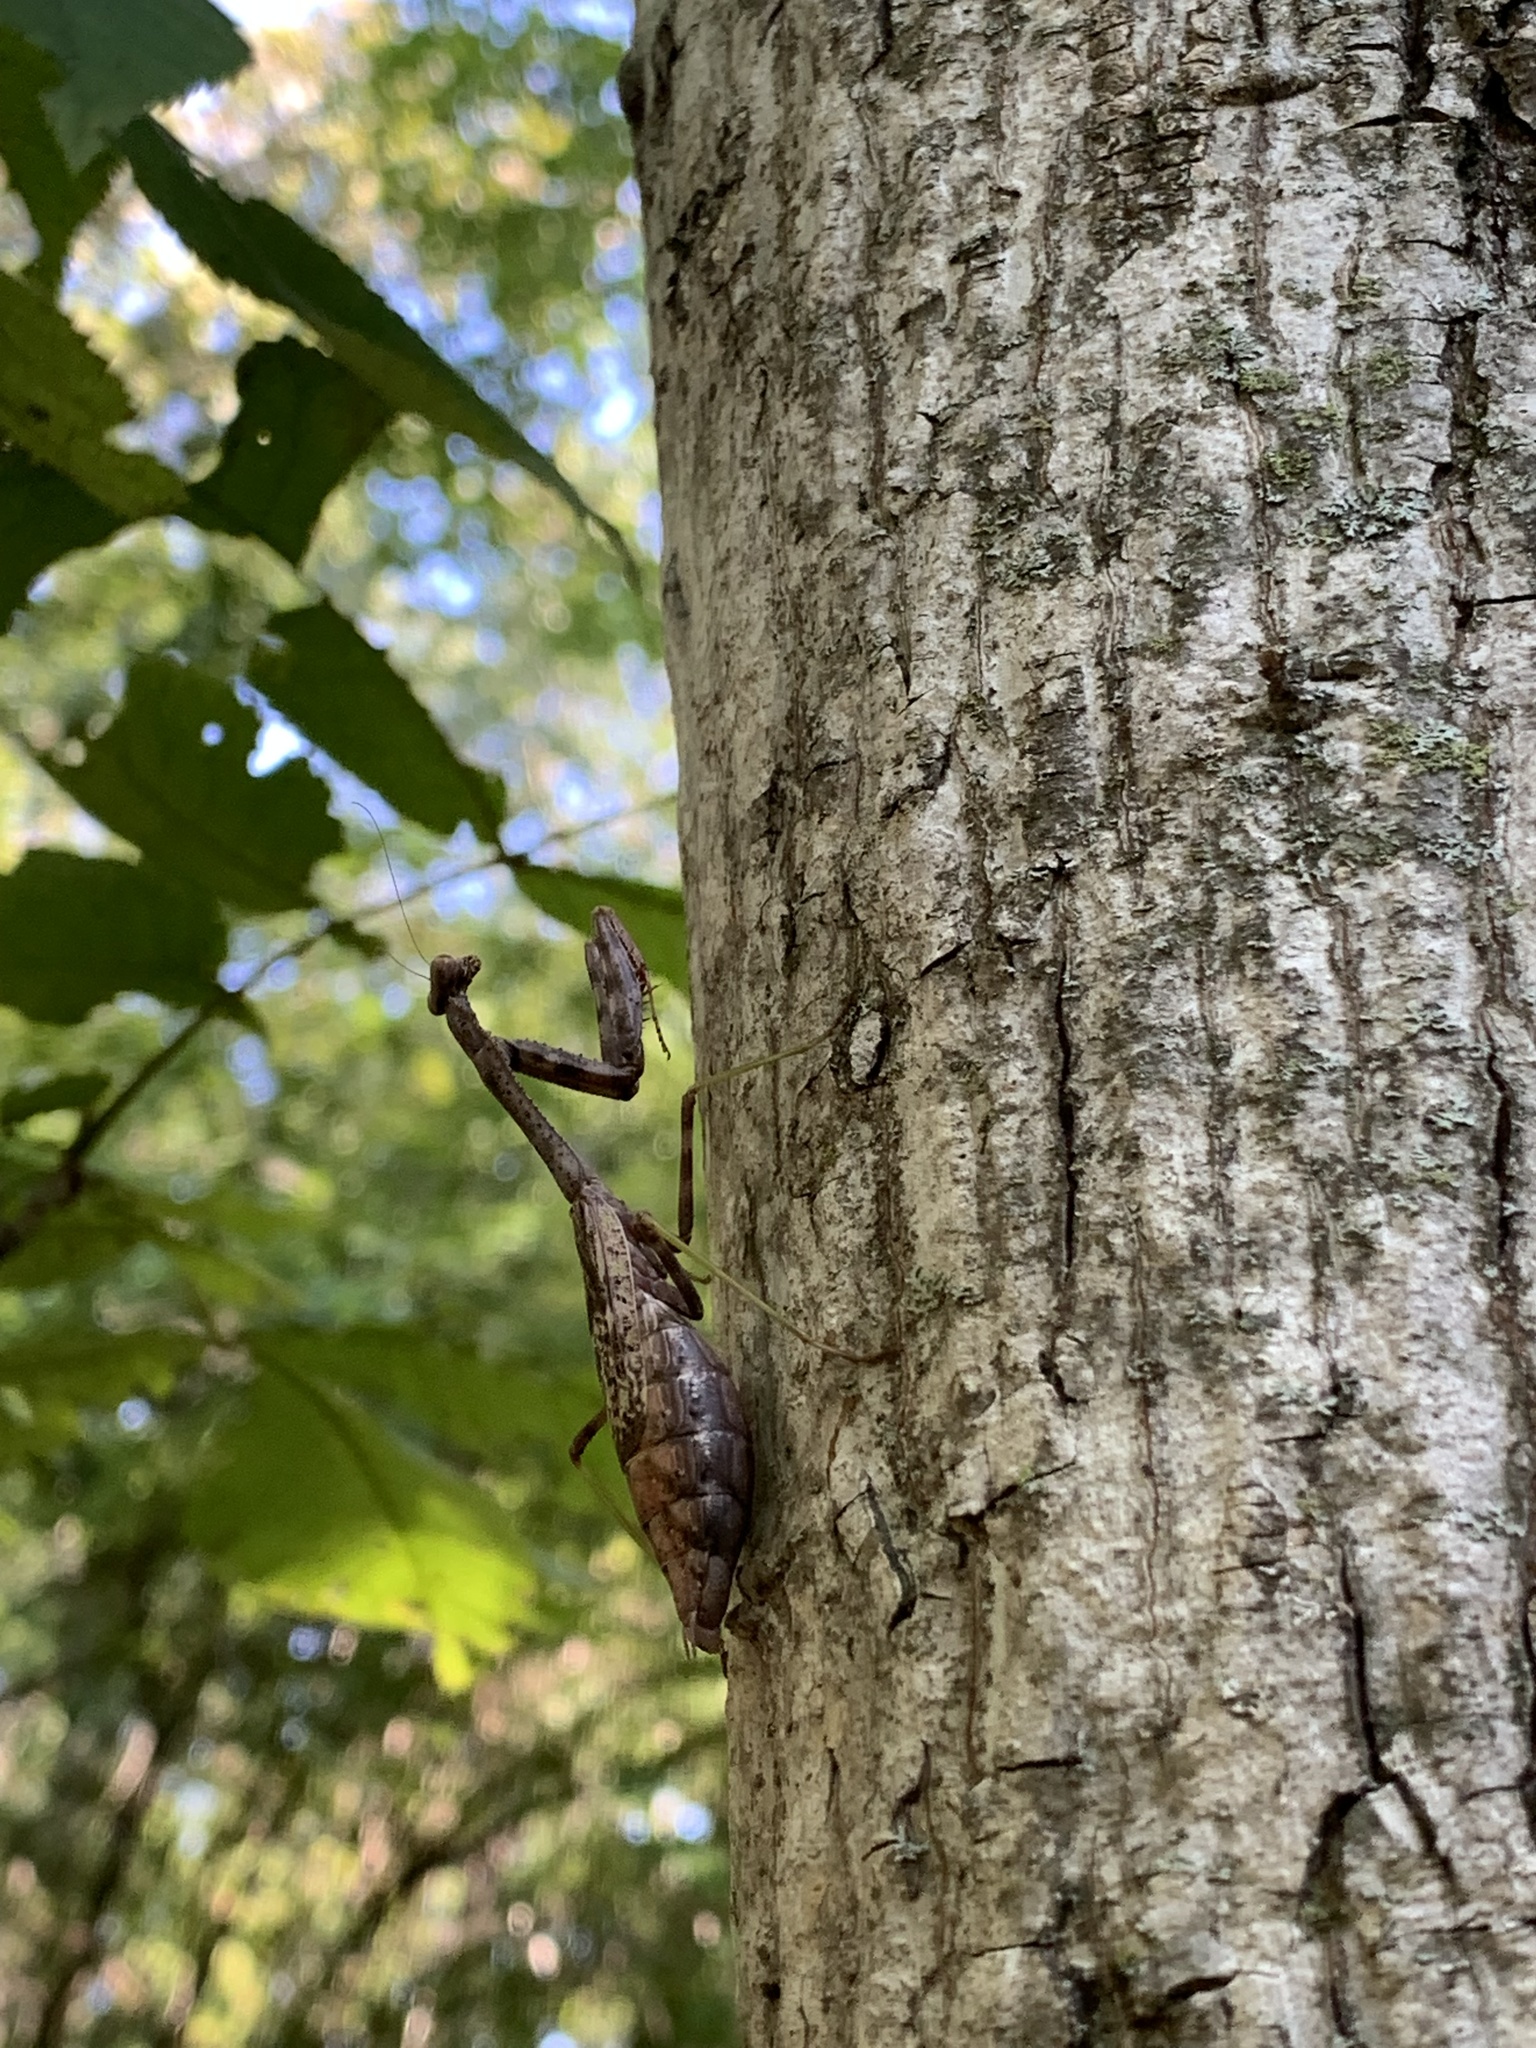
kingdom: Animalia
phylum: Arthropoda
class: Insecta
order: Mantodea
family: Mantidae
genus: Stagmomantis
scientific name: Stagmomantis carolina
